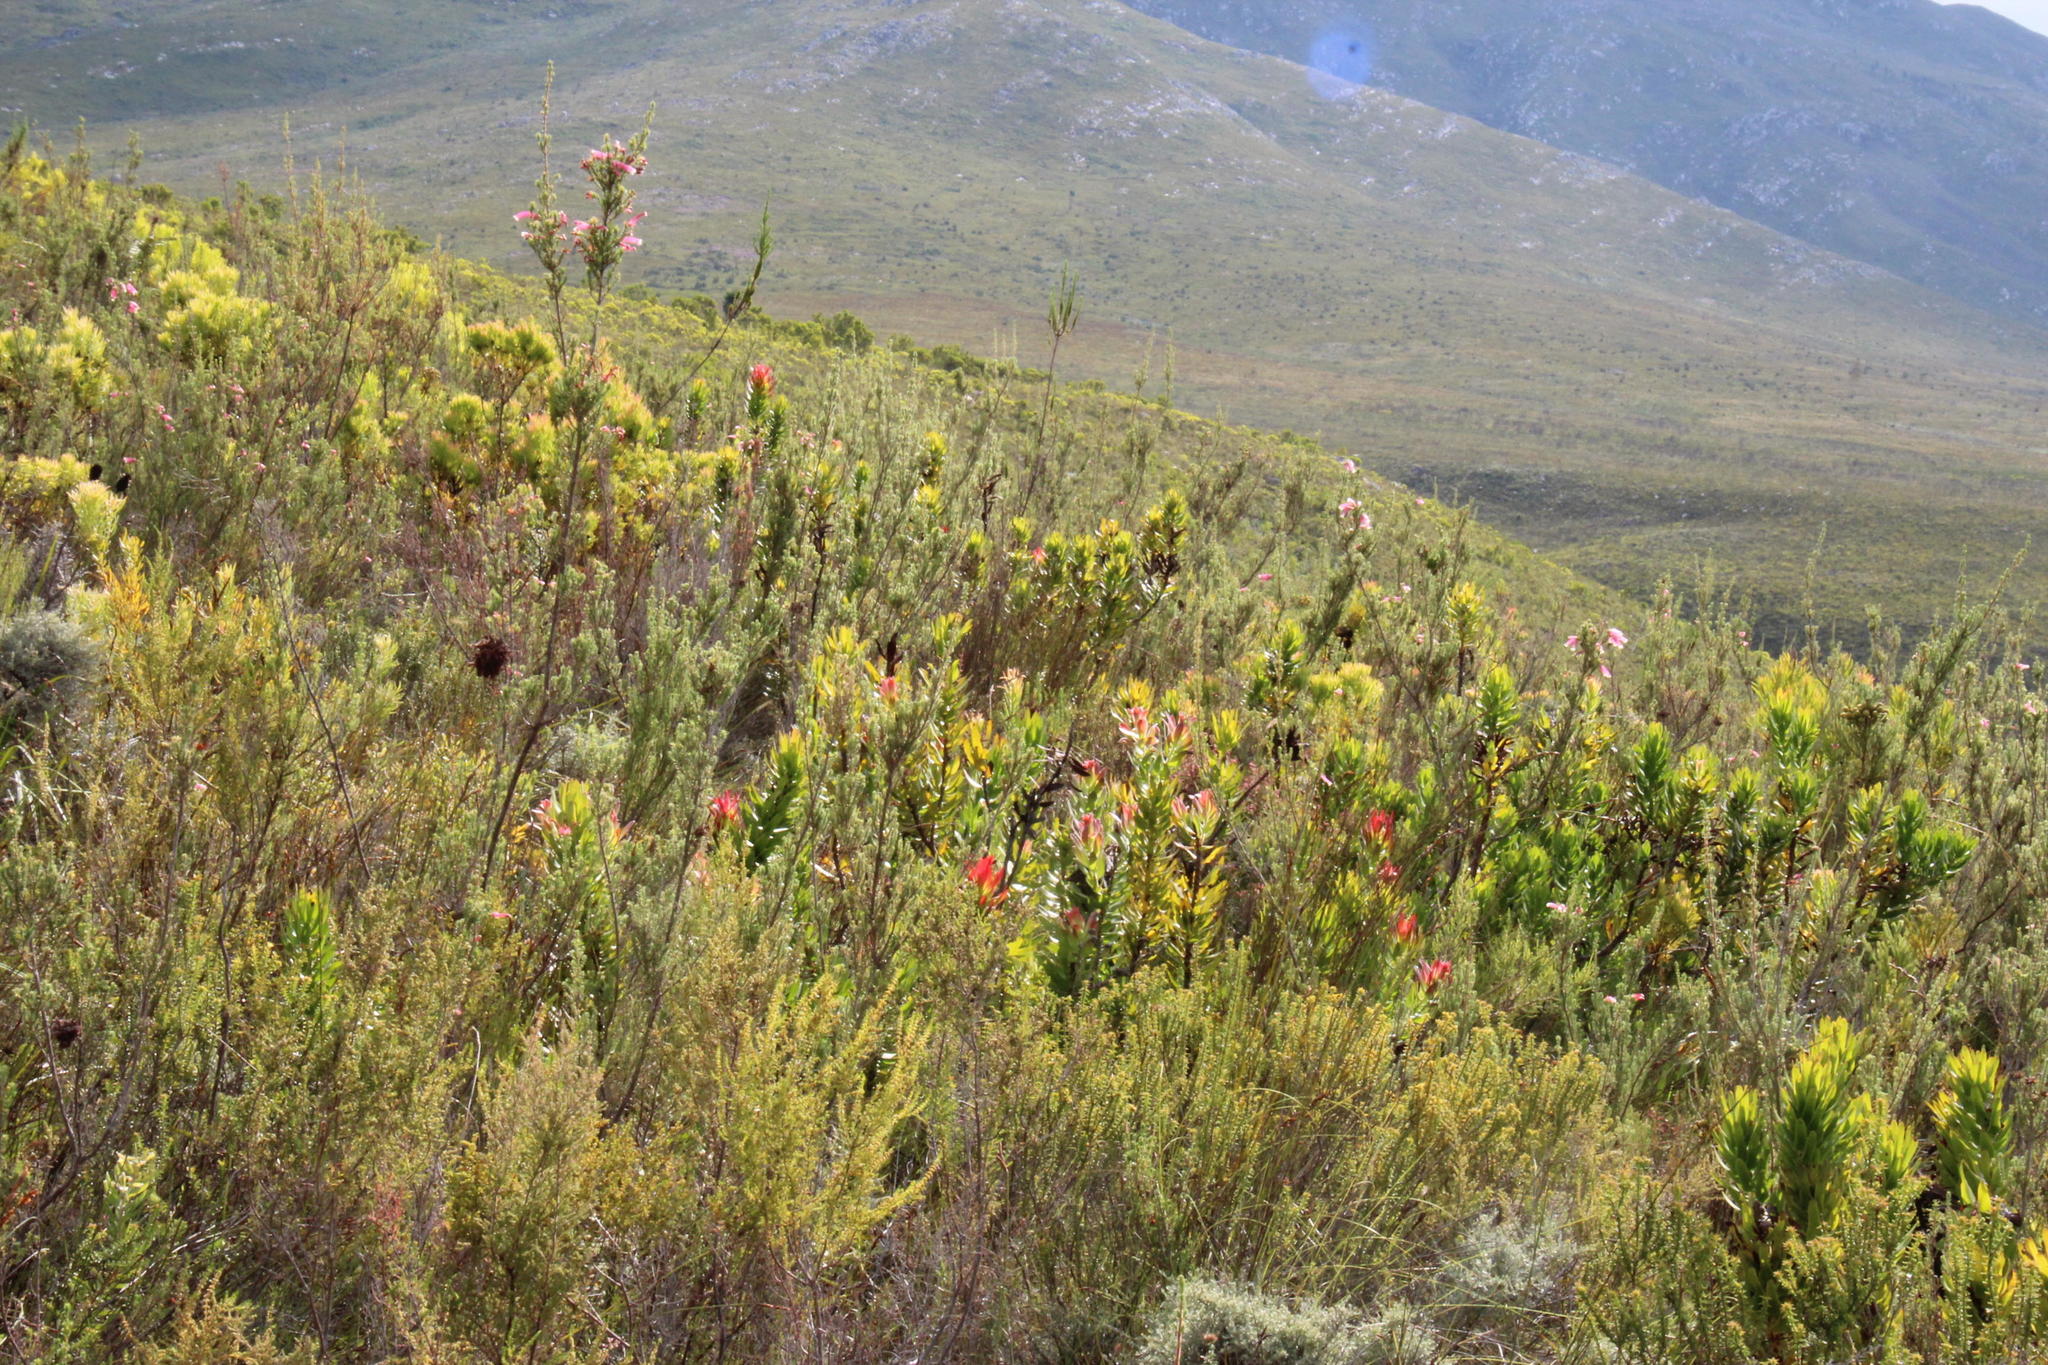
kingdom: Plantae
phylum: Tracheophyta
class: Magnoliopsida
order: Proteales
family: Proteaceae
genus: Mimetes
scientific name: Mimetes cucullatus
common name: Common pagoda
